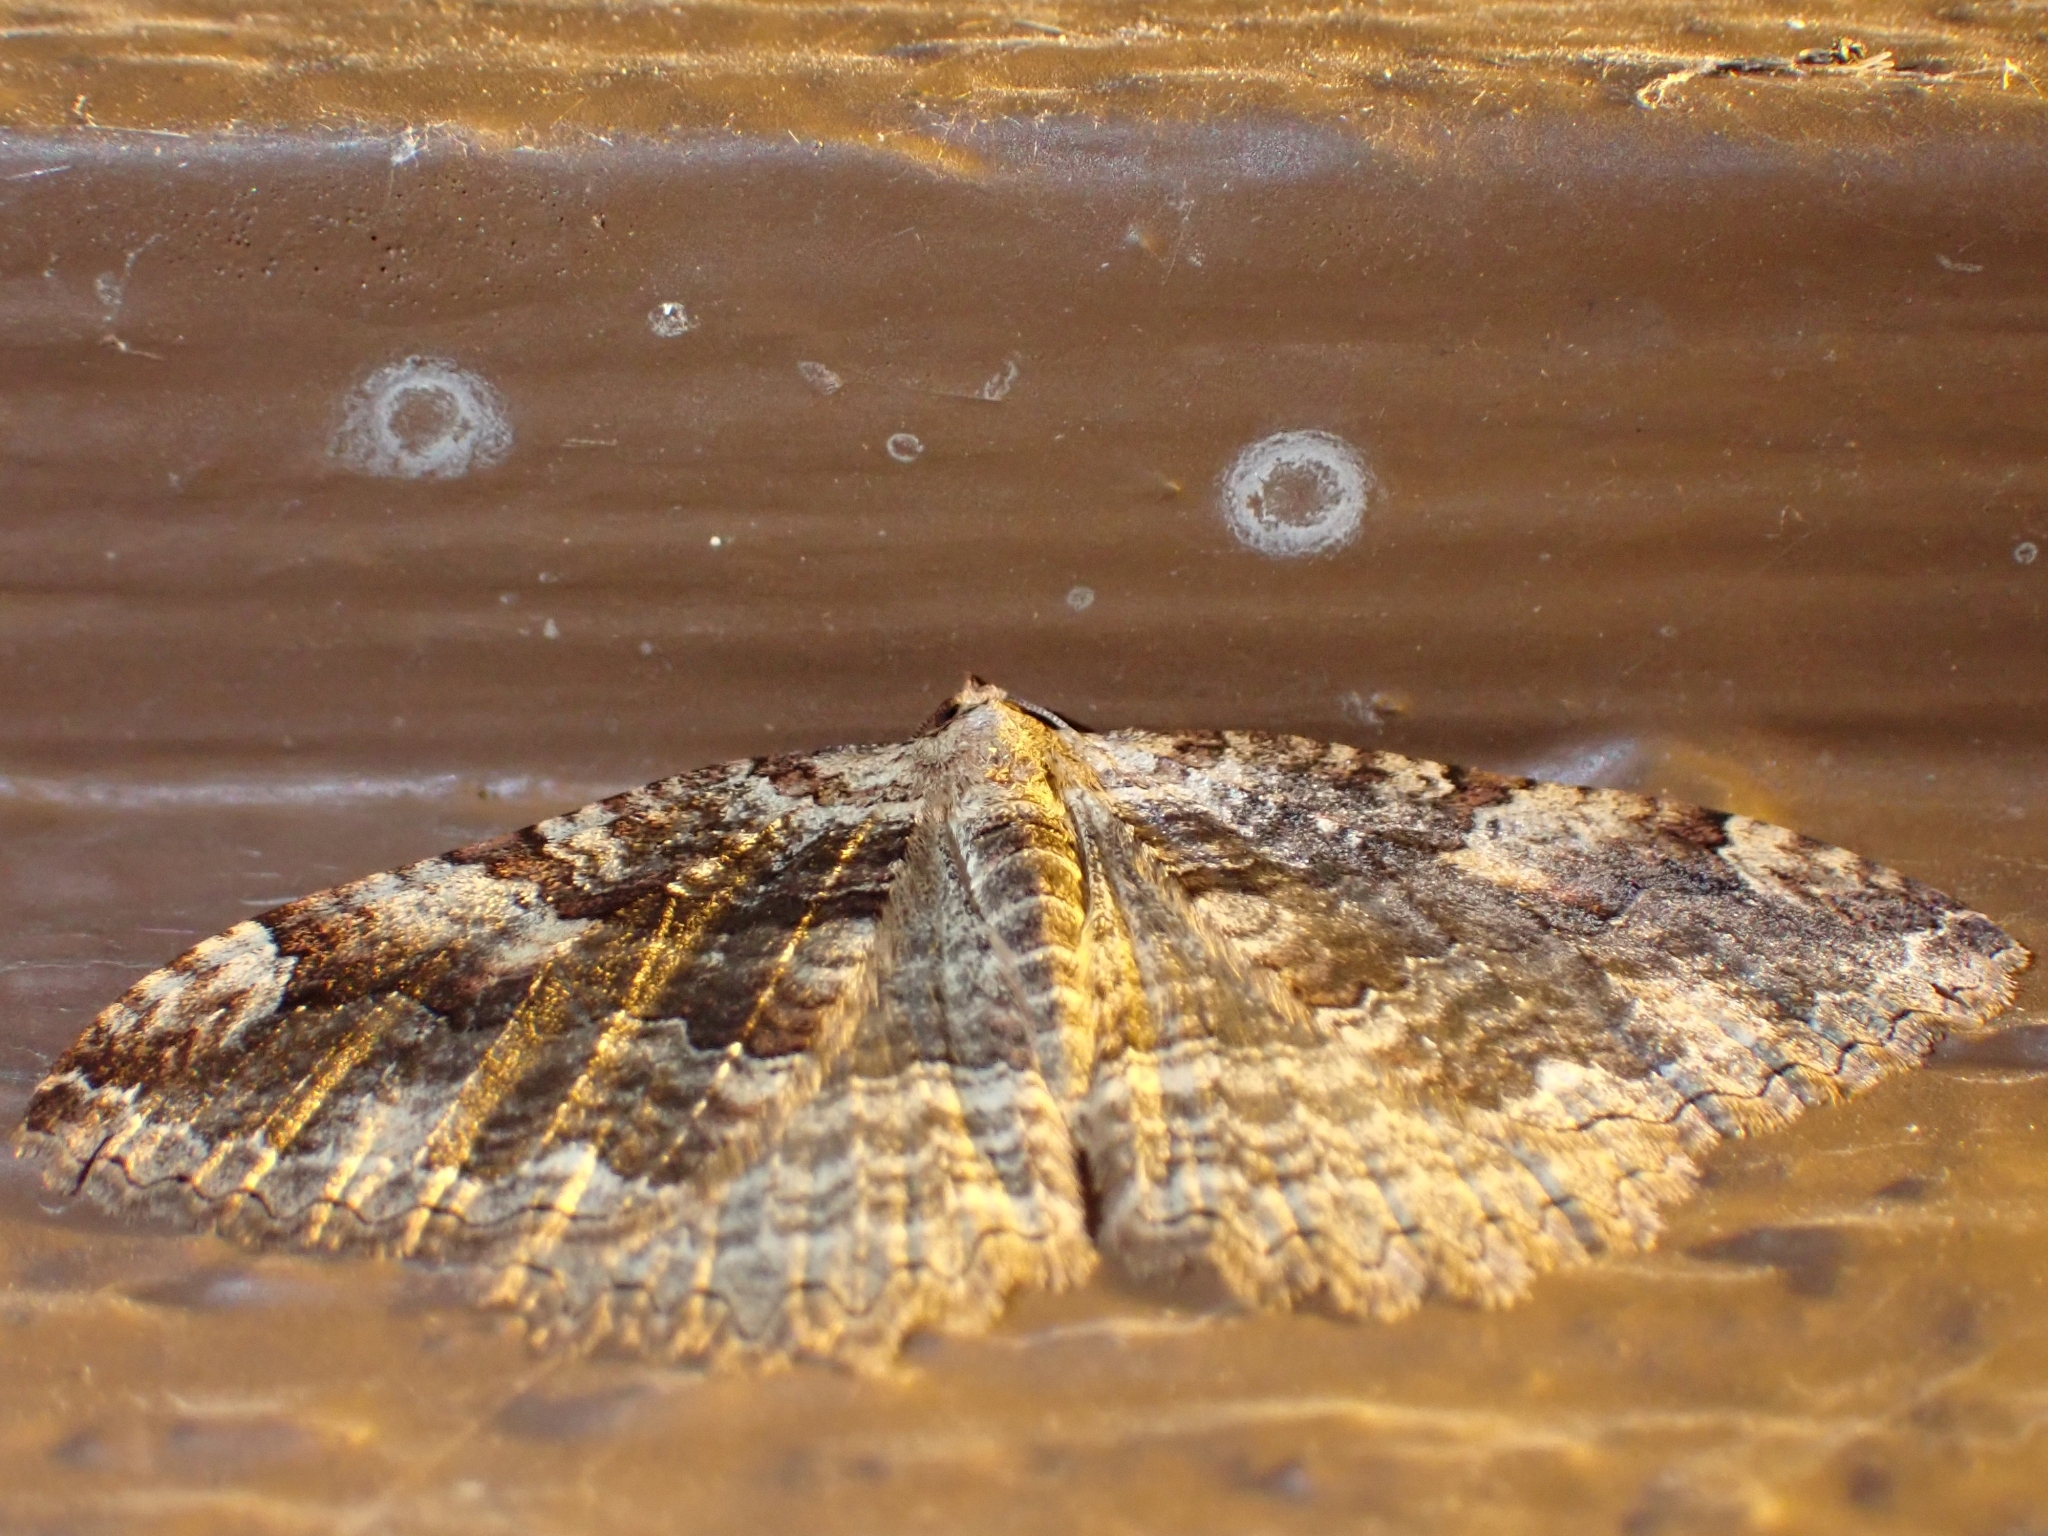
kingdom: Animalia
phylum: Arthropoda
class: Insecta
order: Lepidoptera
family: Geometridae
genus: Triphosa
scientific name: Triphosa haesitata
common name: Tissue moth
